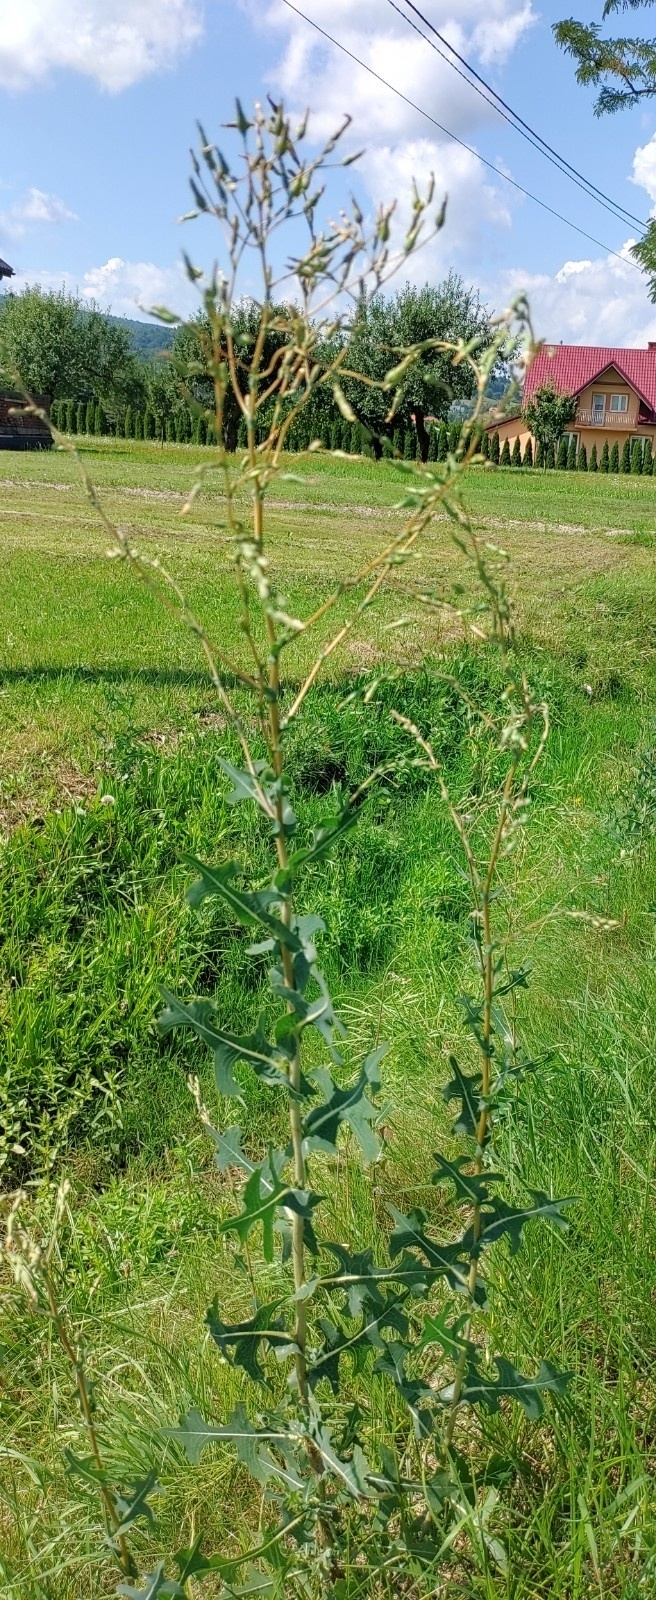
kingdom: Plantae
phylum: Tracheophyta
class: Magnoliopsida
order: Asterales
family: Asteraceae
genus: Lactuca
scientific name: Lactuca serriola
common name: Prickly lettuce
